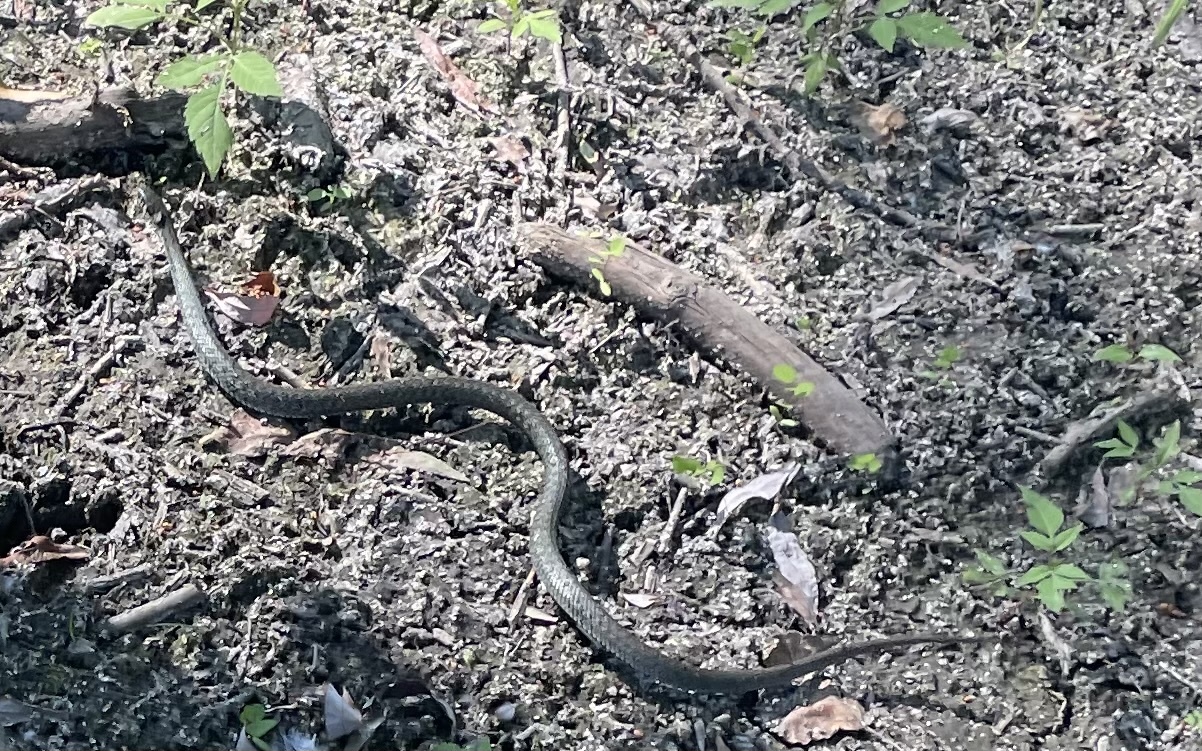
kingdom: Animalia
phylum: Chordata
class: Squamata
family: Colubridae
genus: Natrix
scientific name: Natrix natrix
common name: Grass snake
